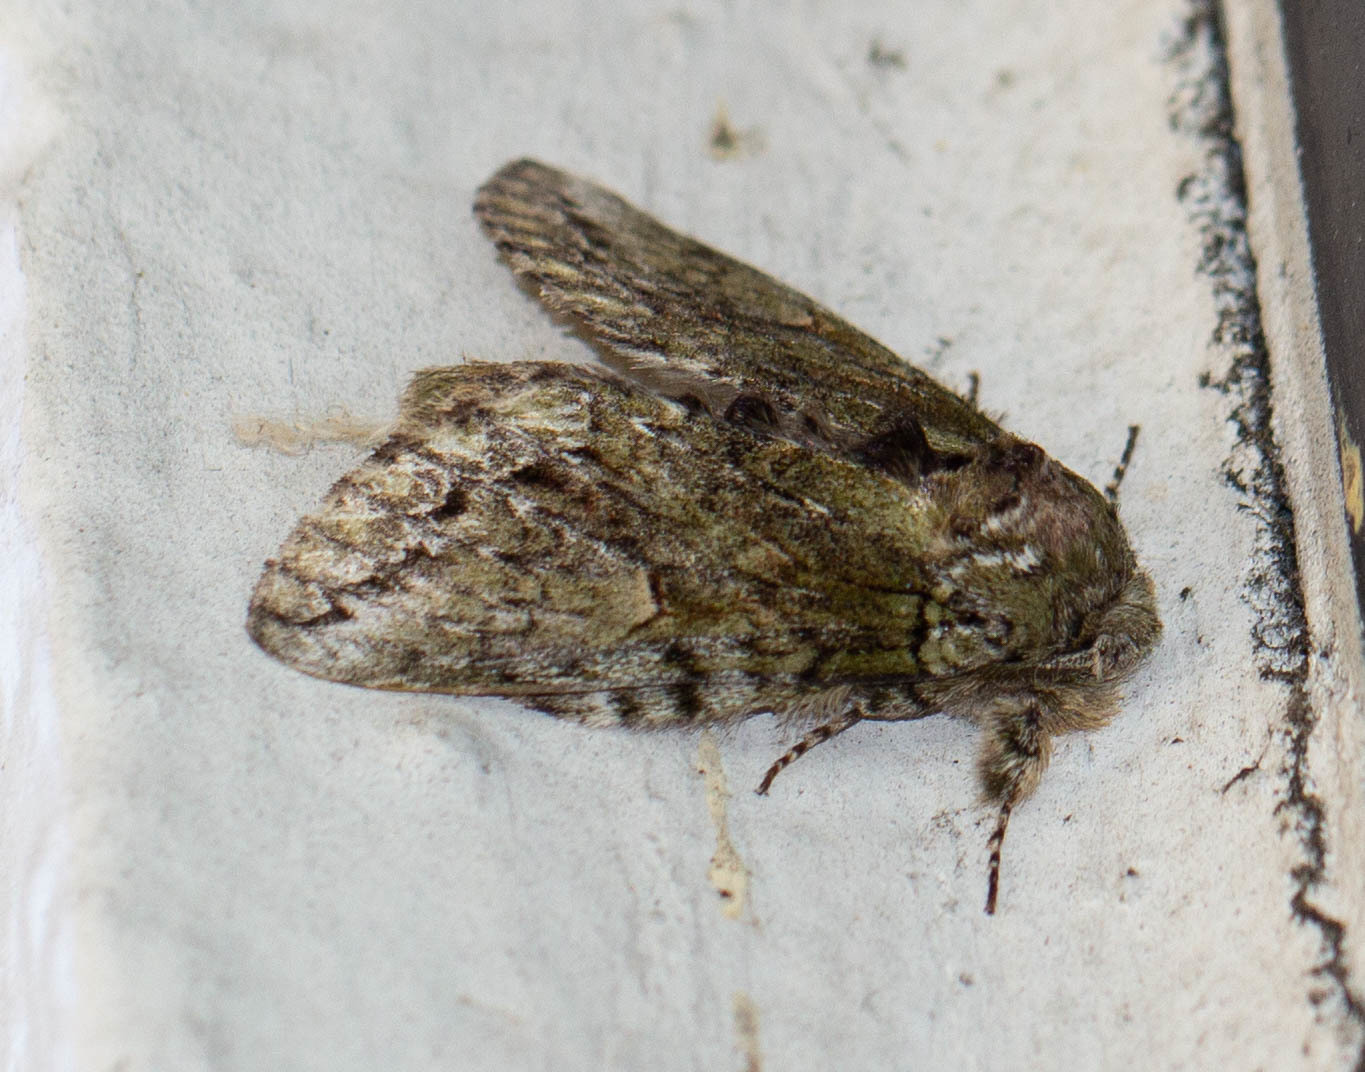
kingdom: Animalia
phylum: Arthropoda
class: Insecta
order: Lepidoptera
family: Notodontidae
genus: Heterocampa
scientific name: Heterocampa
